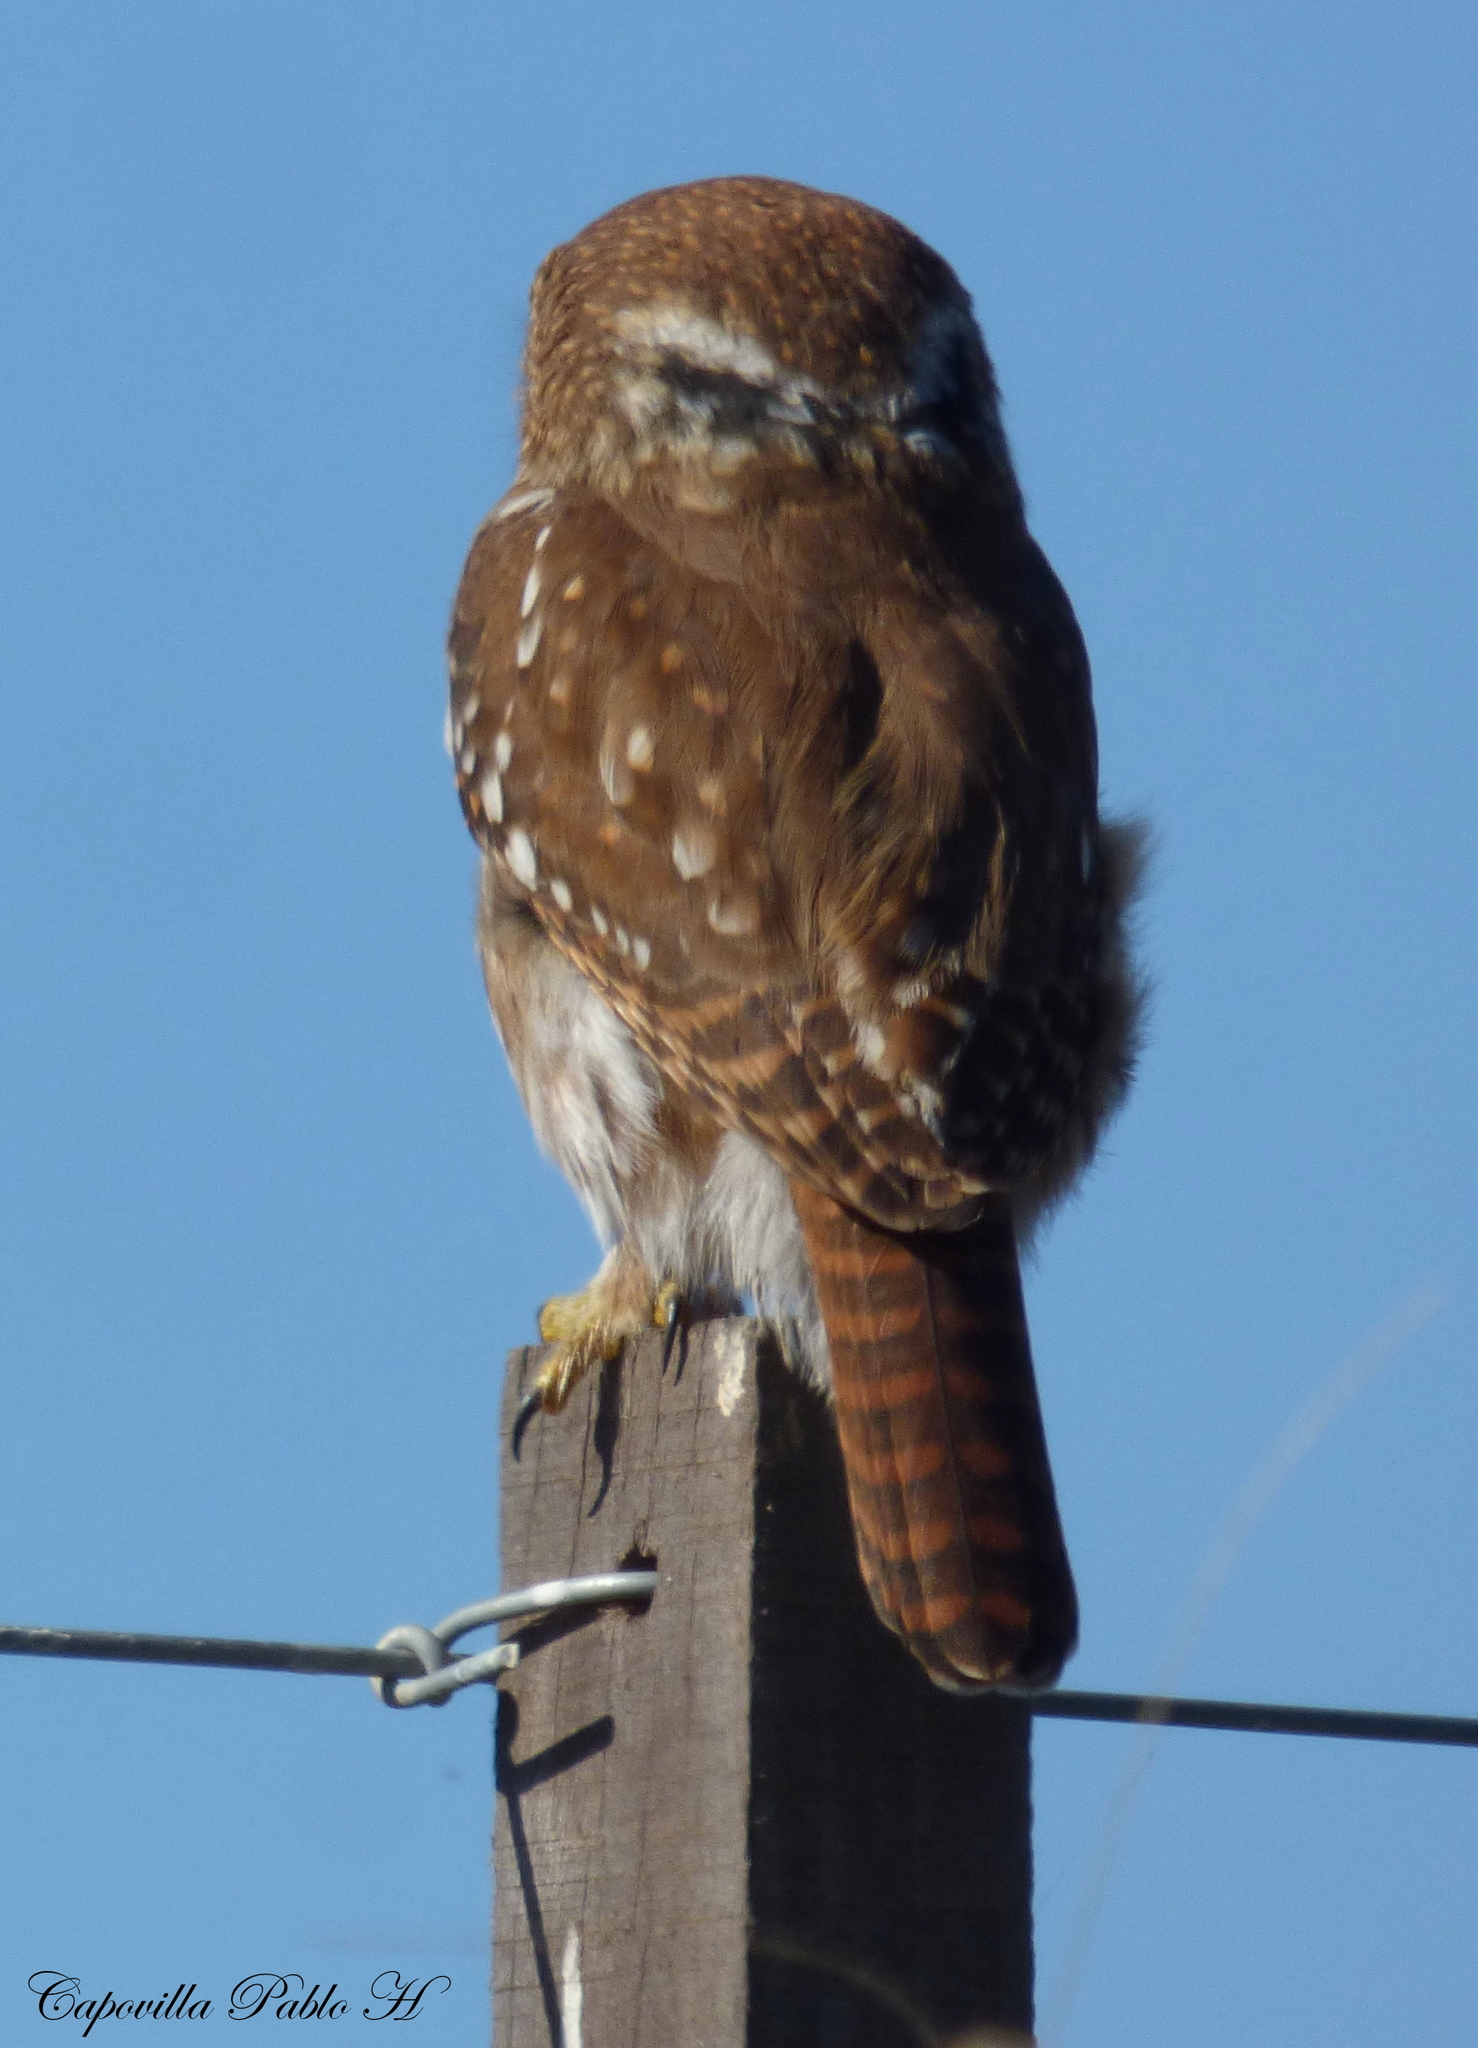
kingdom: Animalia
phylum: Chordata
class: Aves
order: Strigiformes
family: Strigidae
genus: Glaucidium
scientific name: Glaucidium brasilianum
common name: Ferruginous pygmy-owl
